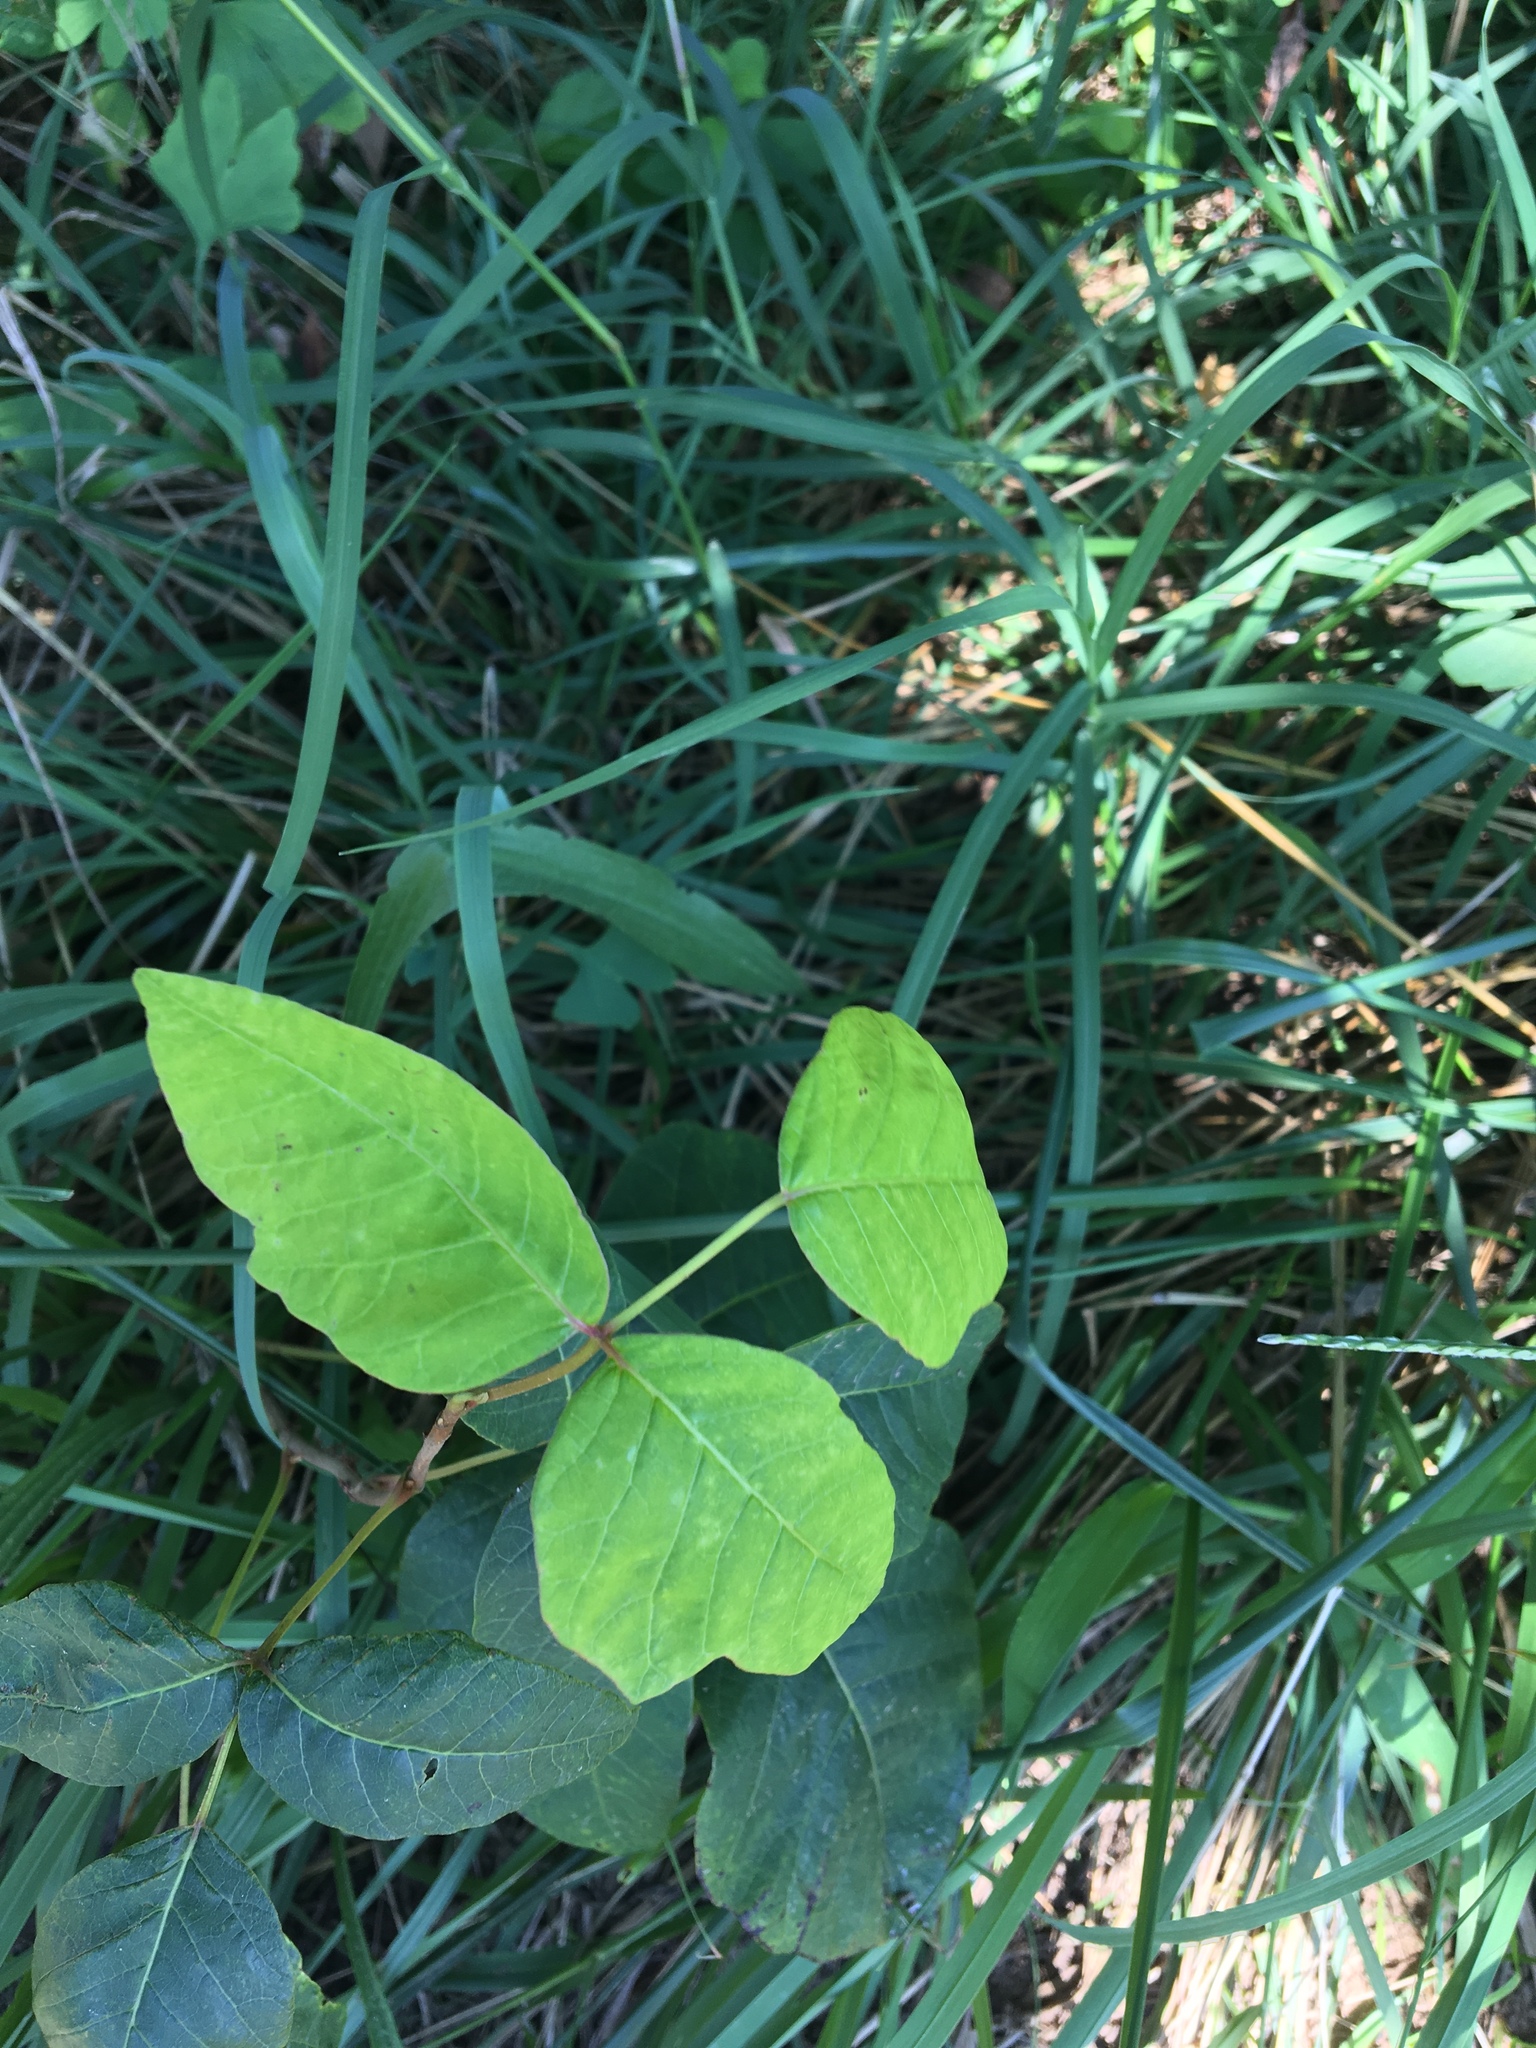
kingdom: Plantae
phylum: Tracheophyta
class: Magnoliopsida
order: Sapindales
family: Anacardiaceae
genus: Toxicodendron
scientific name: Toxicodendron radicans
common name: Poison ivy
